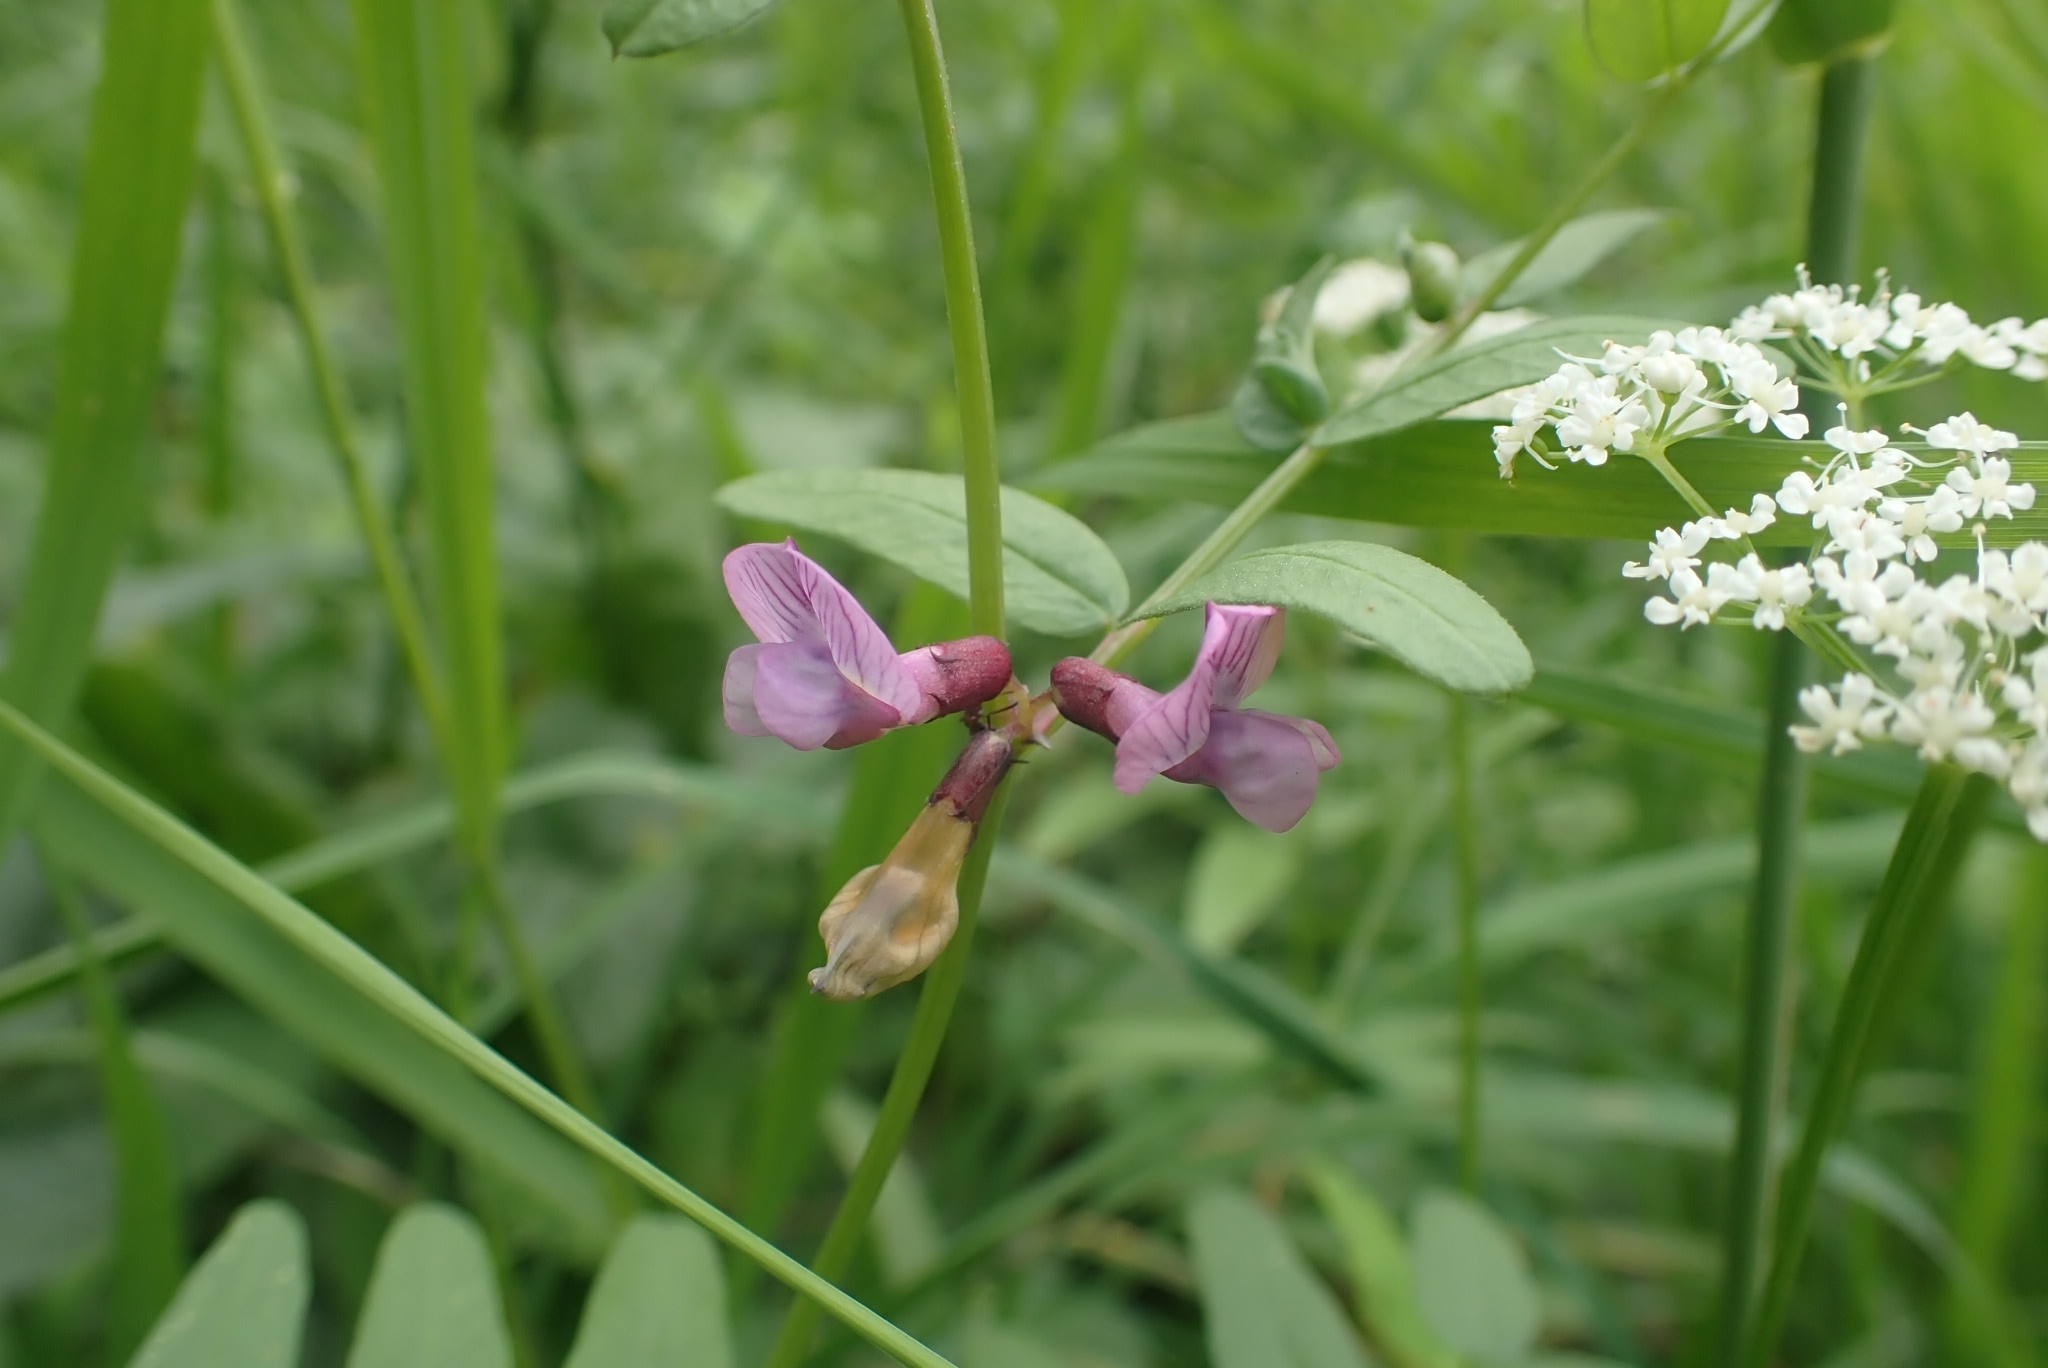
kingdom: Plantae
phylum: Tracheophyta
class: Magnoliopsida
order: Fabales
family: Fabaceae
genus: Vicia
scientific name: Vicia sepium
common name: Bush vetch
